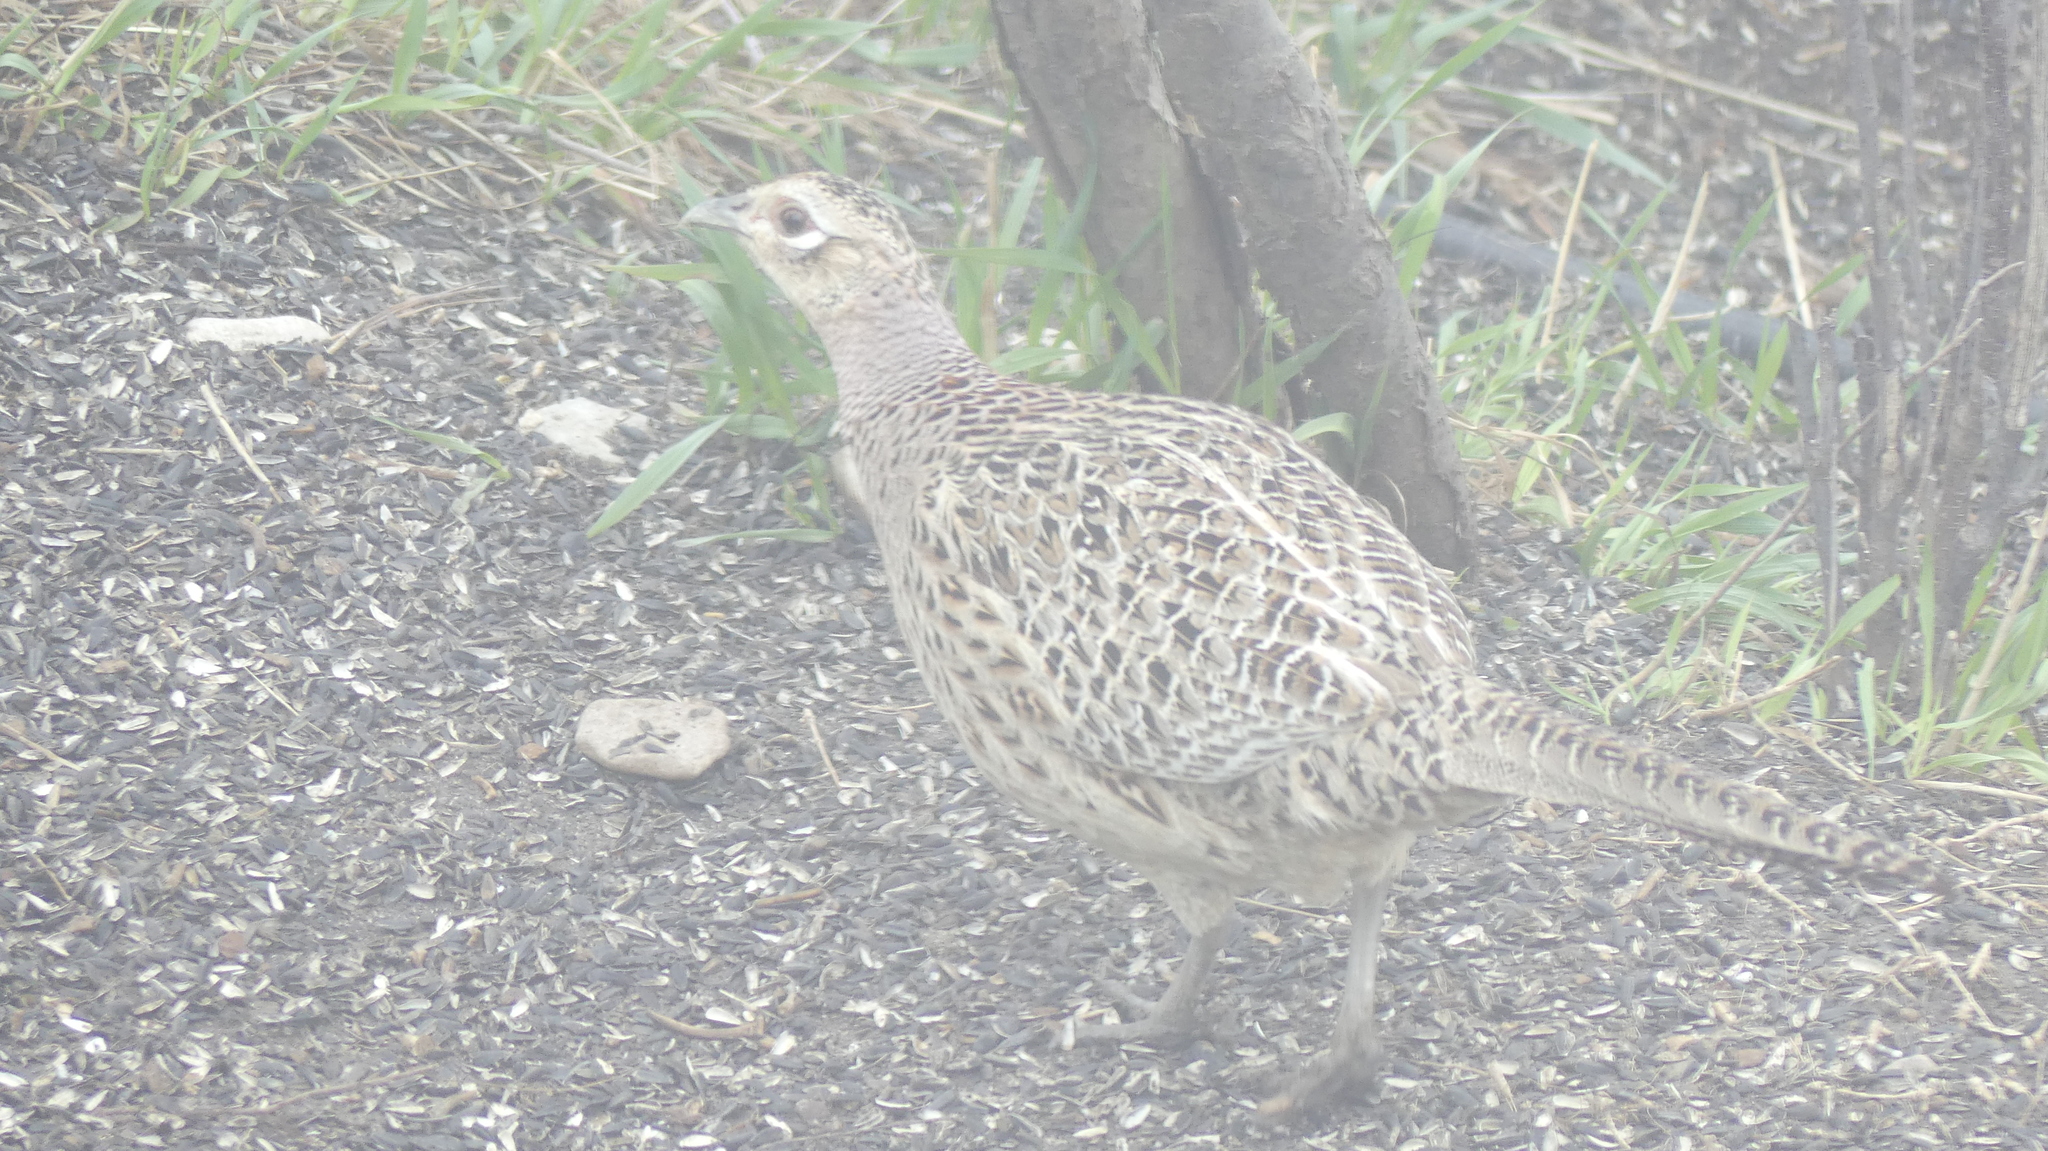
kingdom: Animalia
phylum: Chordata
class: Aves
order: Galliformes
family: Phasianidae
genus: Phasianus
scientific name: Phasianus colchicus
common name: Common pheasant
